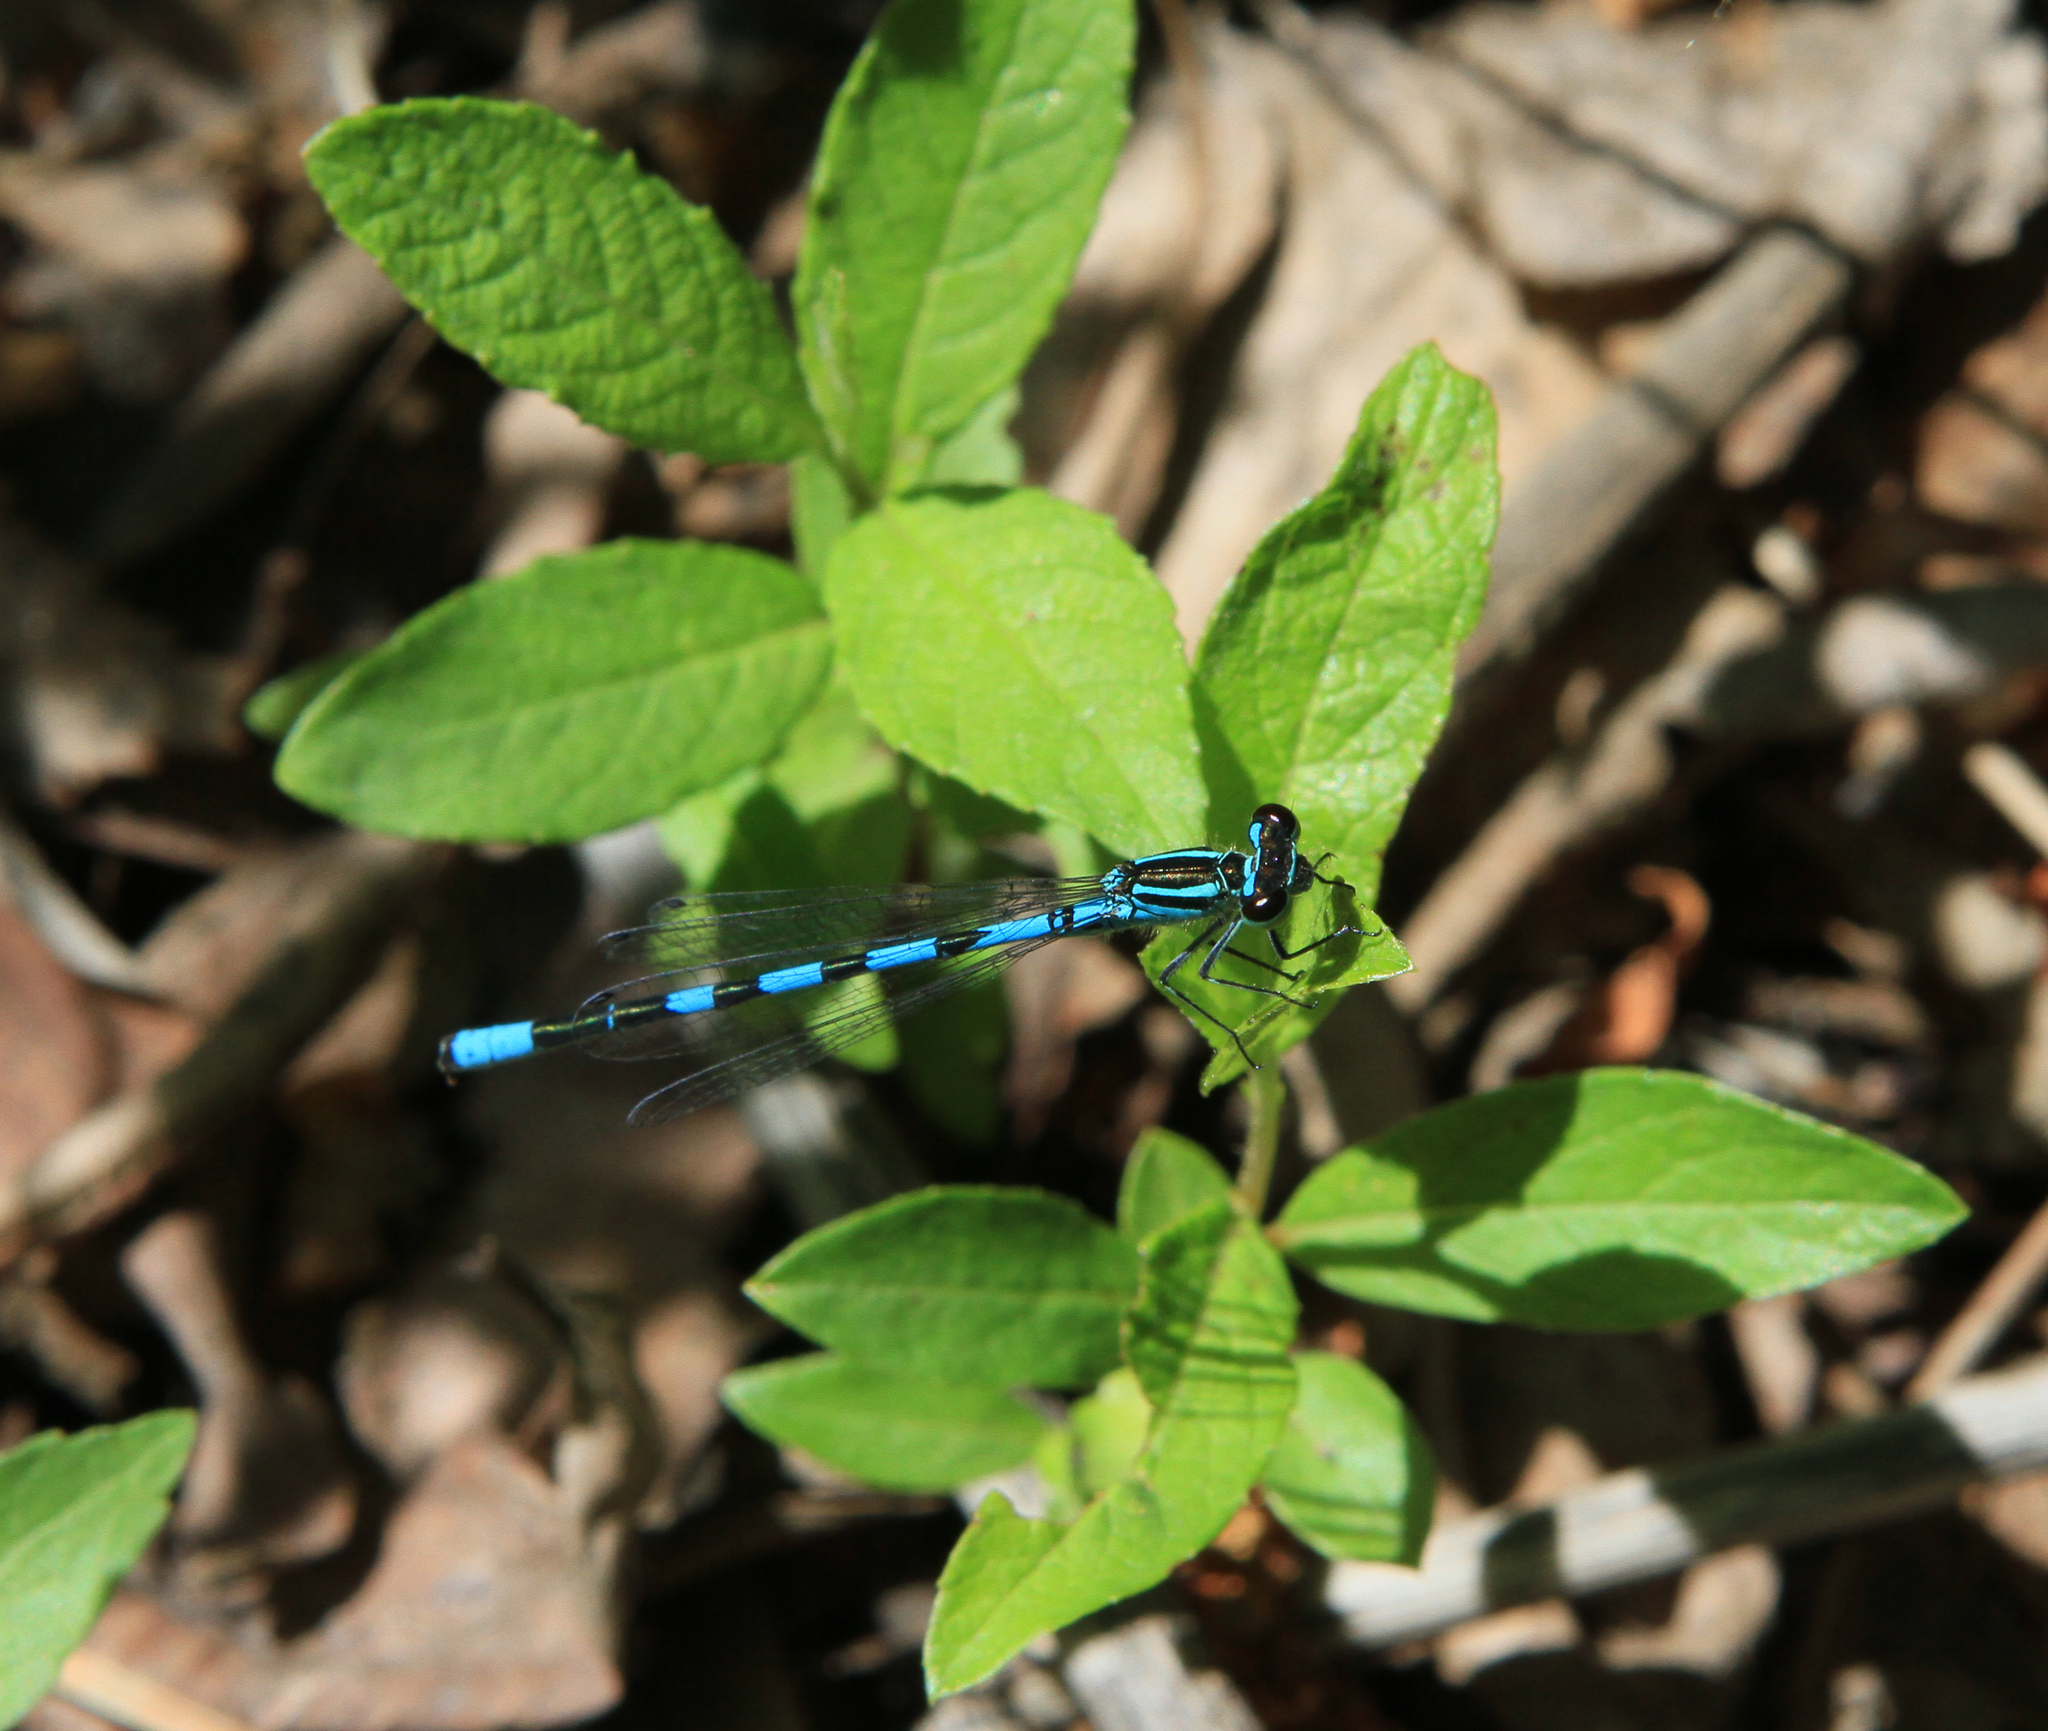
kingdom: Animalia
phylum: Arthropoda
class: Insecta
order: Odonata
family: Coenagrionidae
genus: Coenagrion
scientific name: Coenagrion hastulatum
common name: Spearhead bluet
